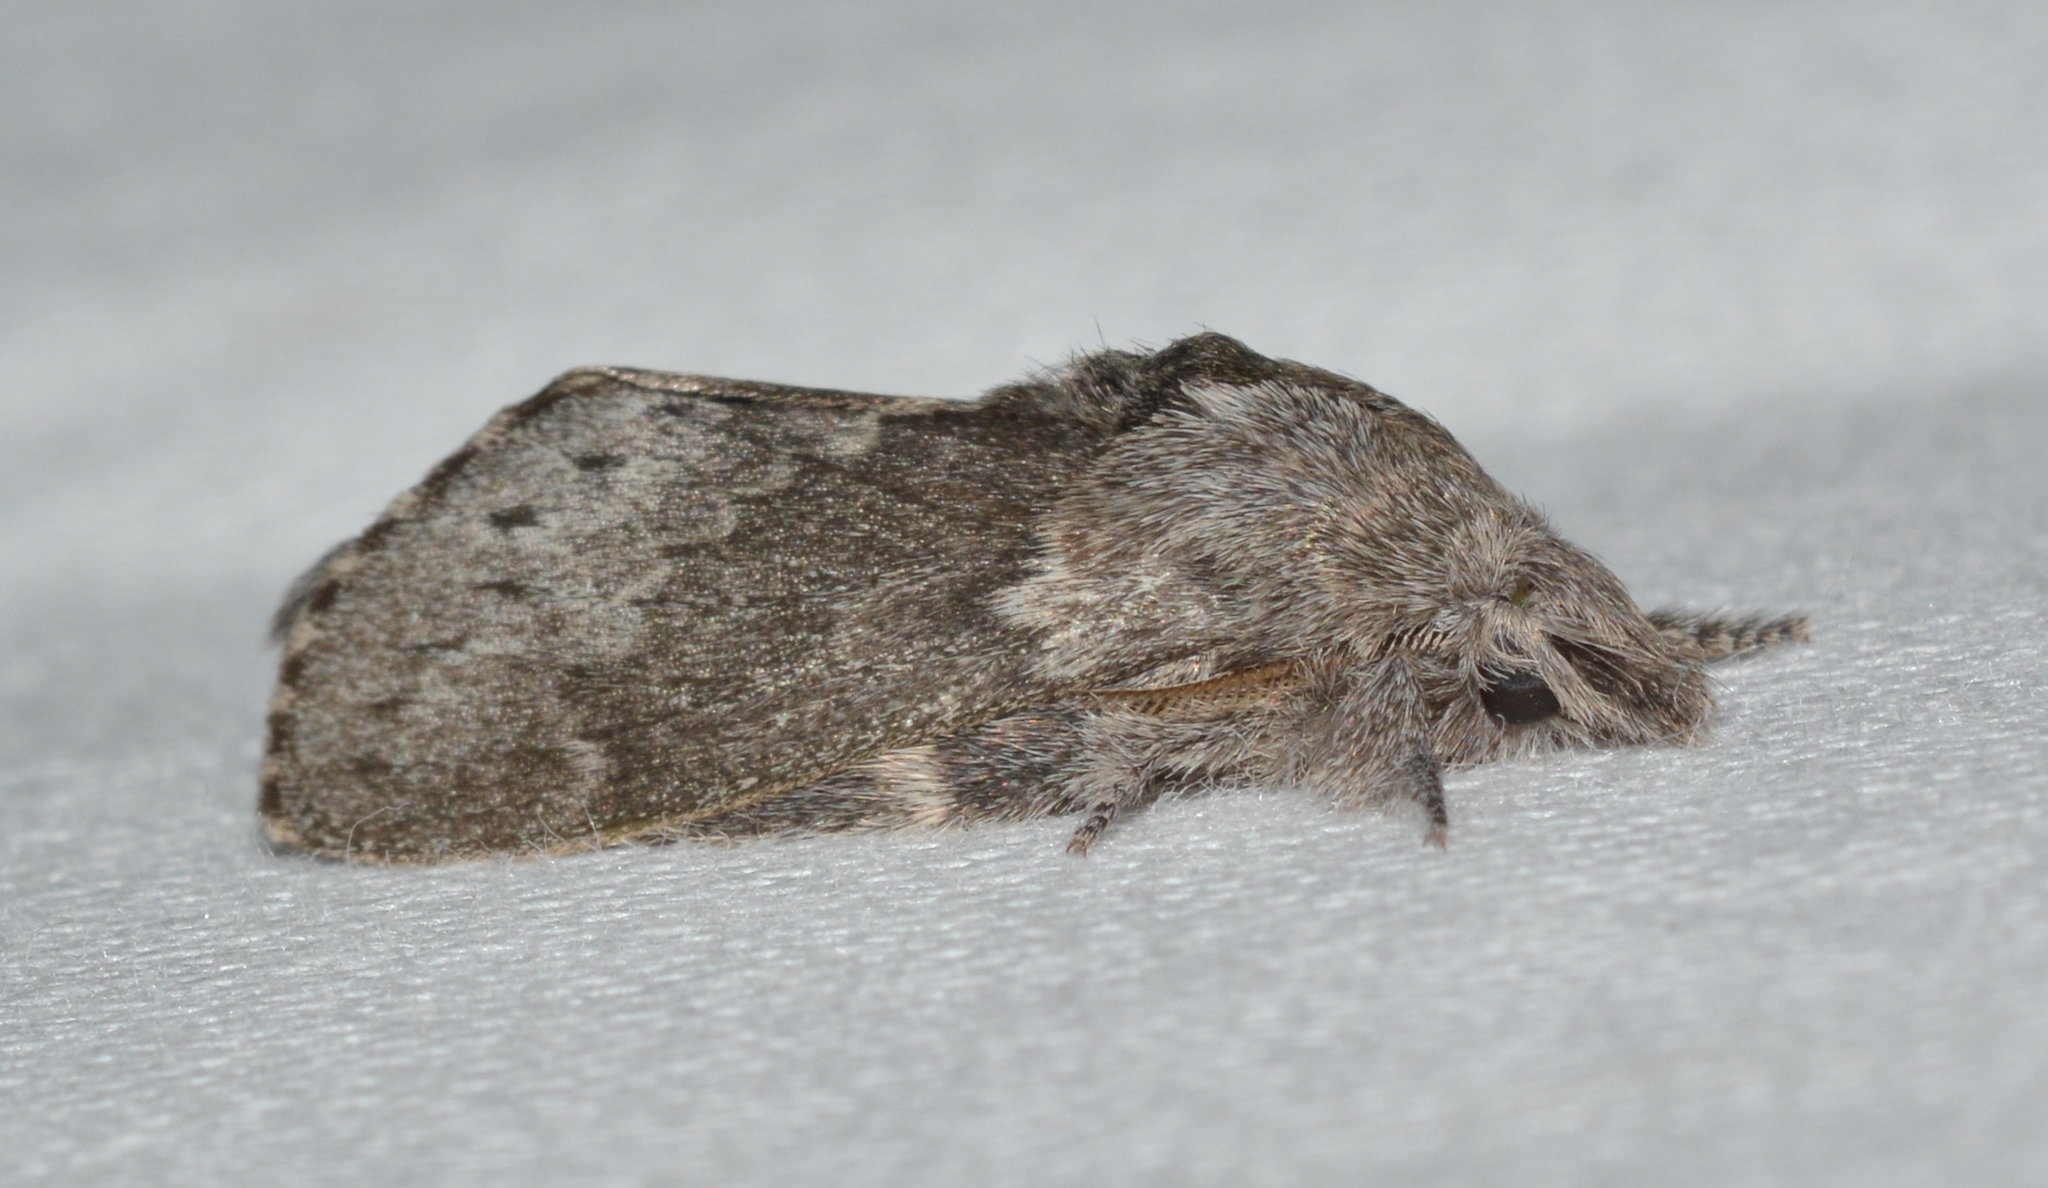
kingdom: Animalia
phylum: Arthropoda
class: Insecta
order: Lepidoptera
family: Lasiocampidae
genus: Heteropacha
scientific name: Heteropacha rileyana
